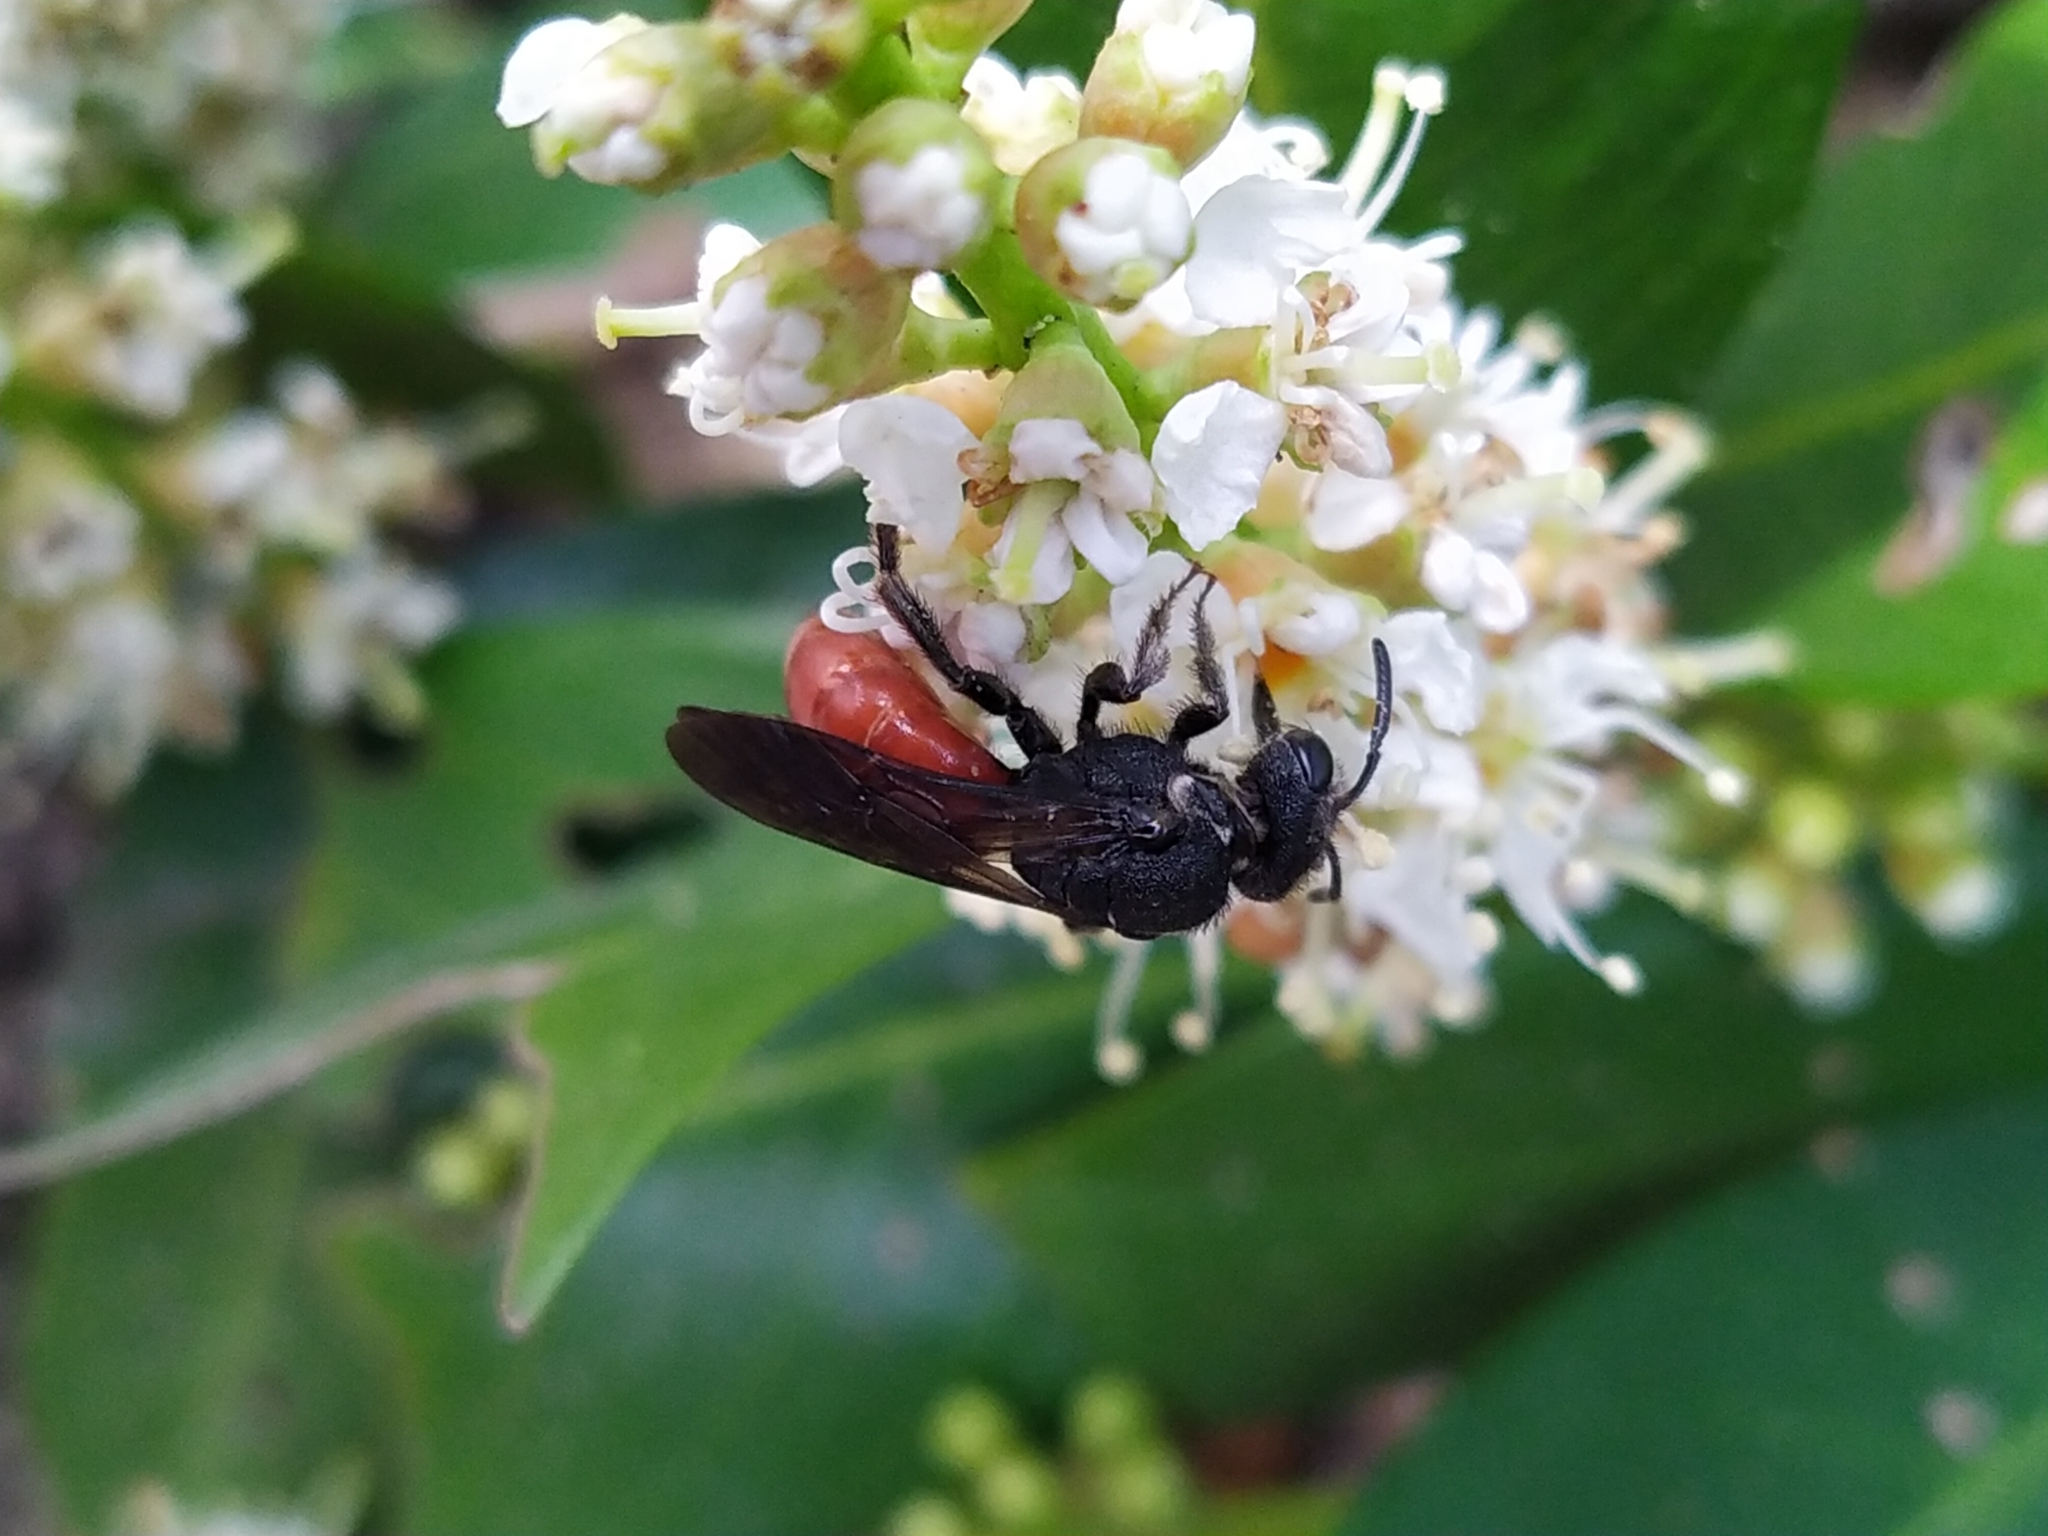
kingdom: Animalia
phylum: Arthropoda
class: Insecta
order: Hymenoptera
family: Halictidae
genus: Sphecodes
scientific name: Sphecodes albilabris
